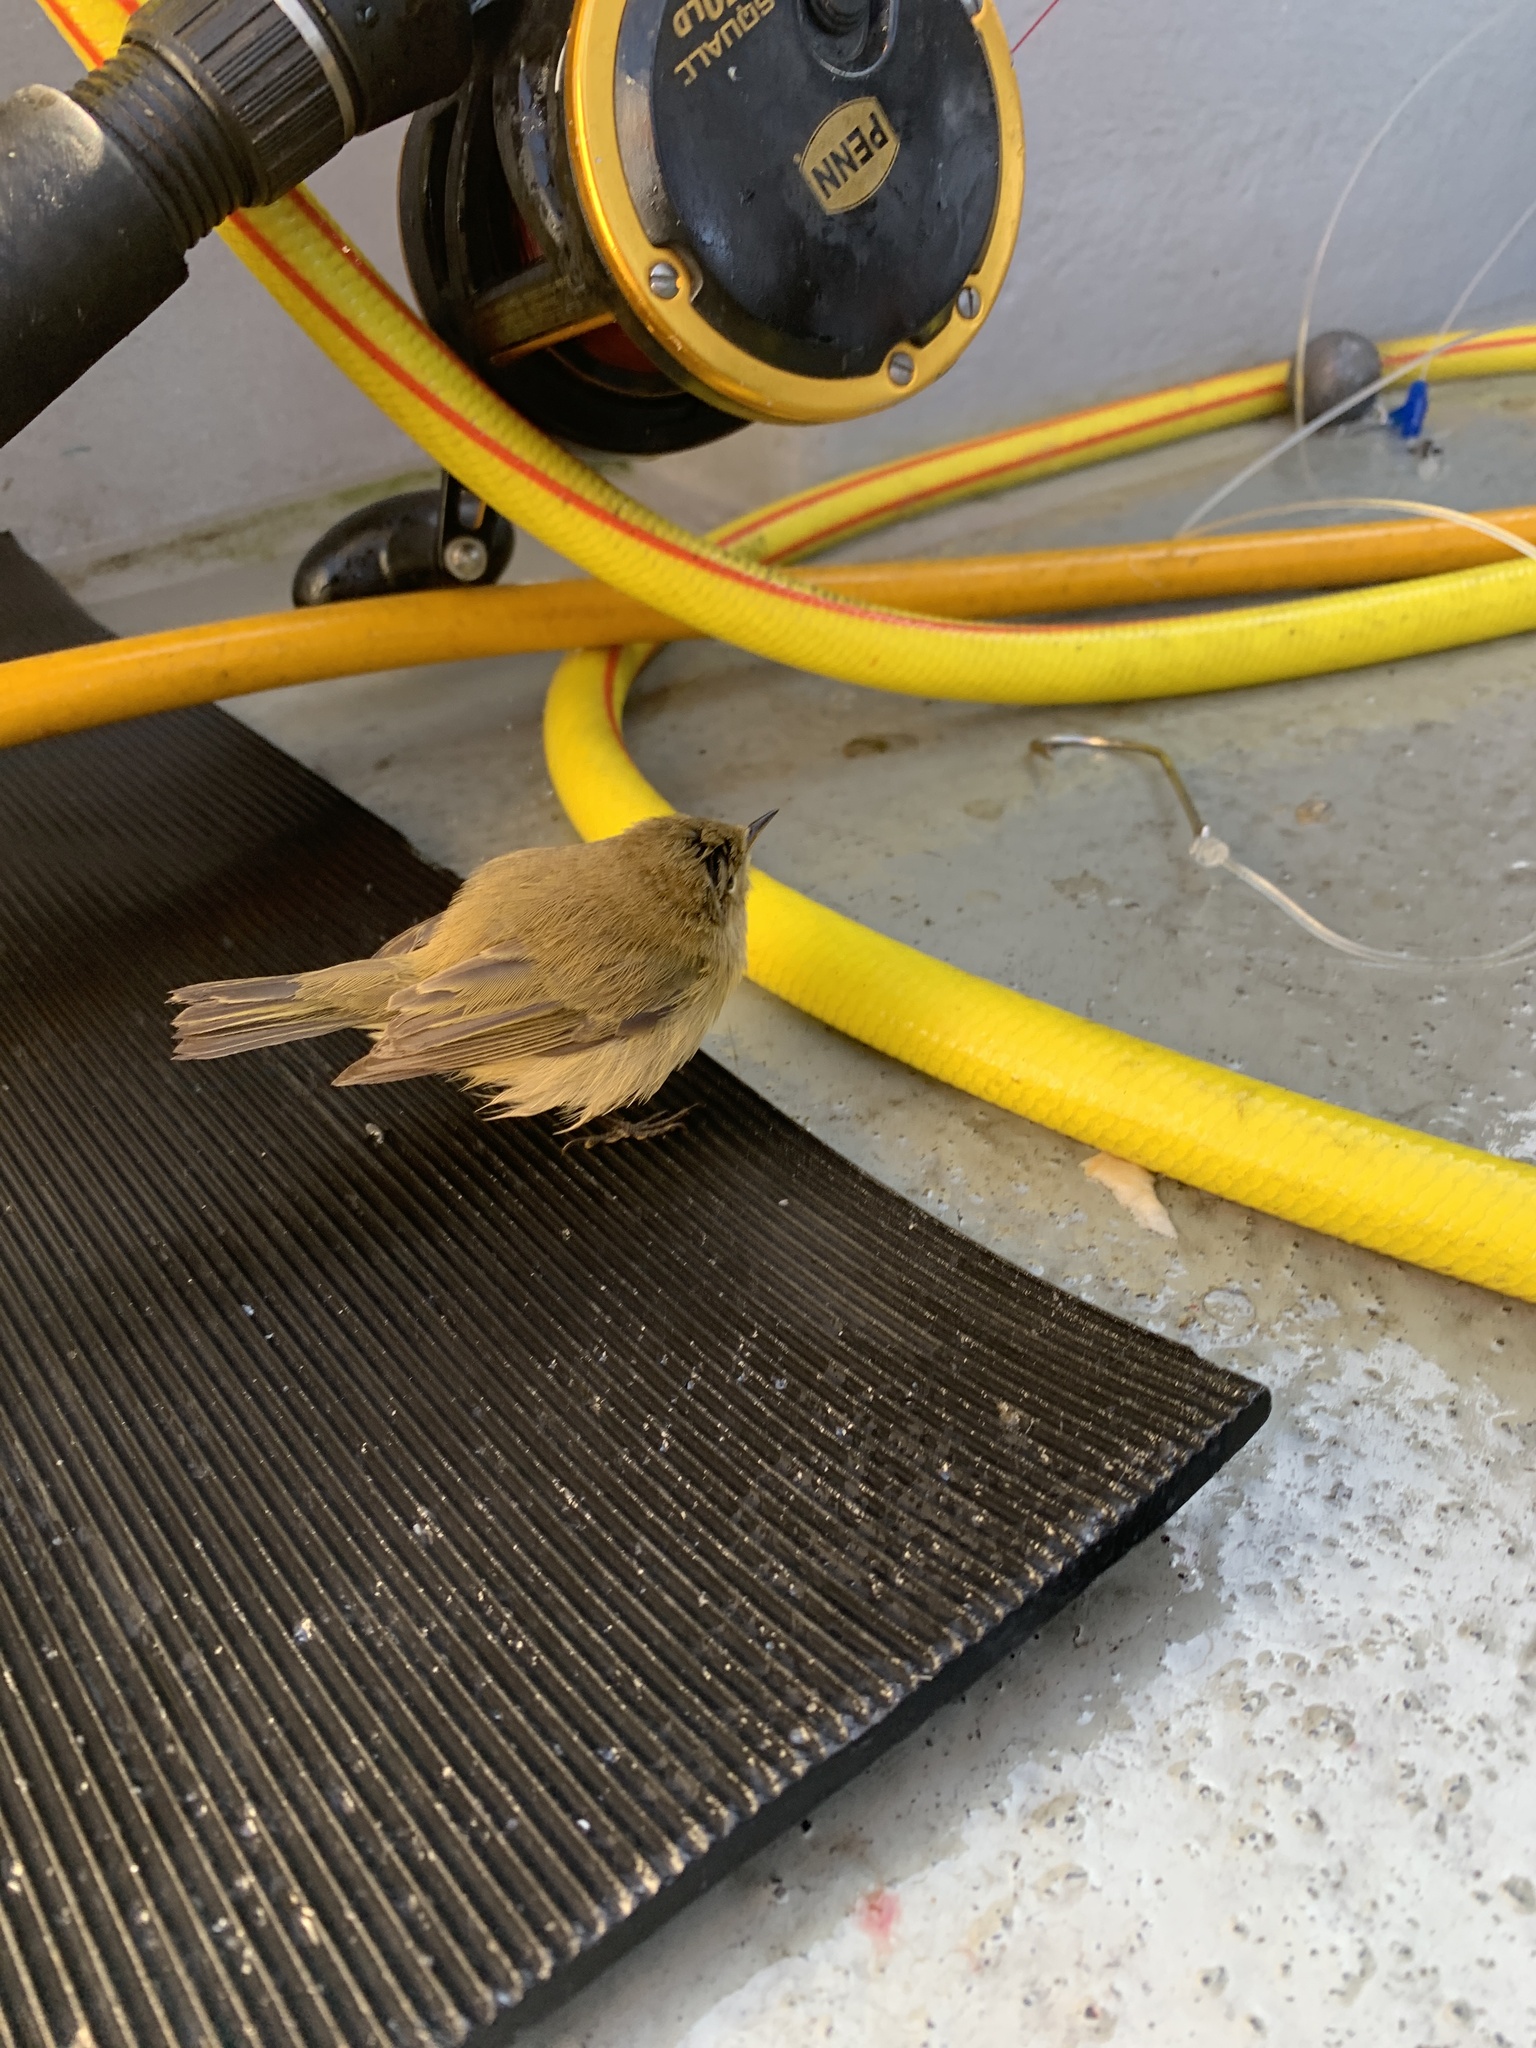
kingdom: Animalia
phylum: Chordata
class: Aves
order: Passeriformes
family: Phylloscopidae
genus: Phylloscopus
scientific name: Phylloscopus collybita
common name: Common chiffchaff
